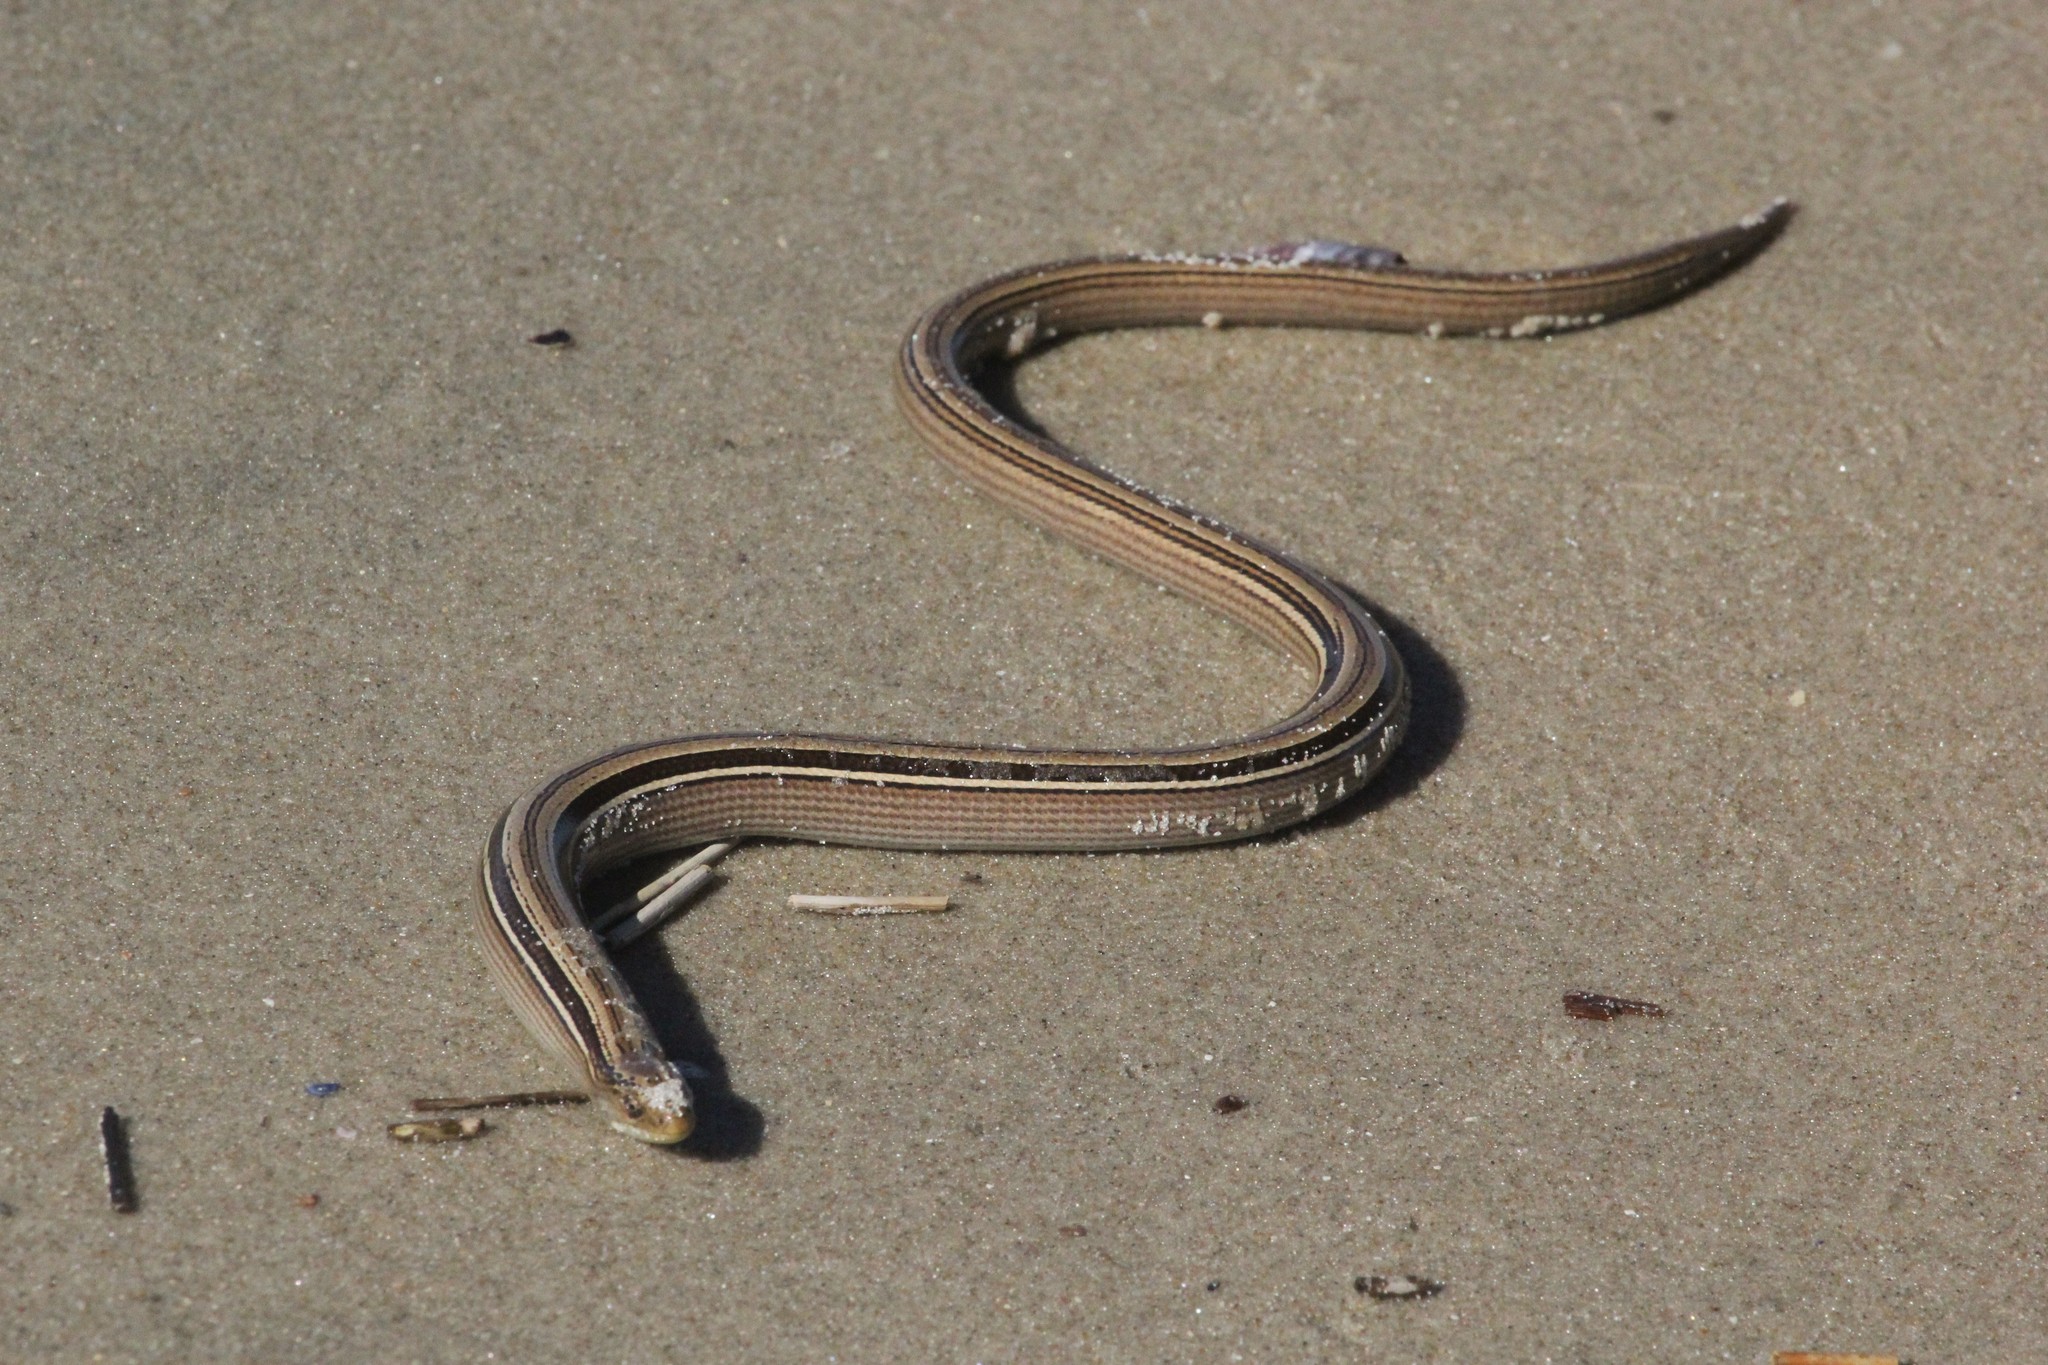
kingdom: Animalia
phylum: Chordata
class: Squamata
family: Diploglossidae
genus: Ophiodes
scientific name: Ophiodes vertebralis
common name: Jointed worm lizard
